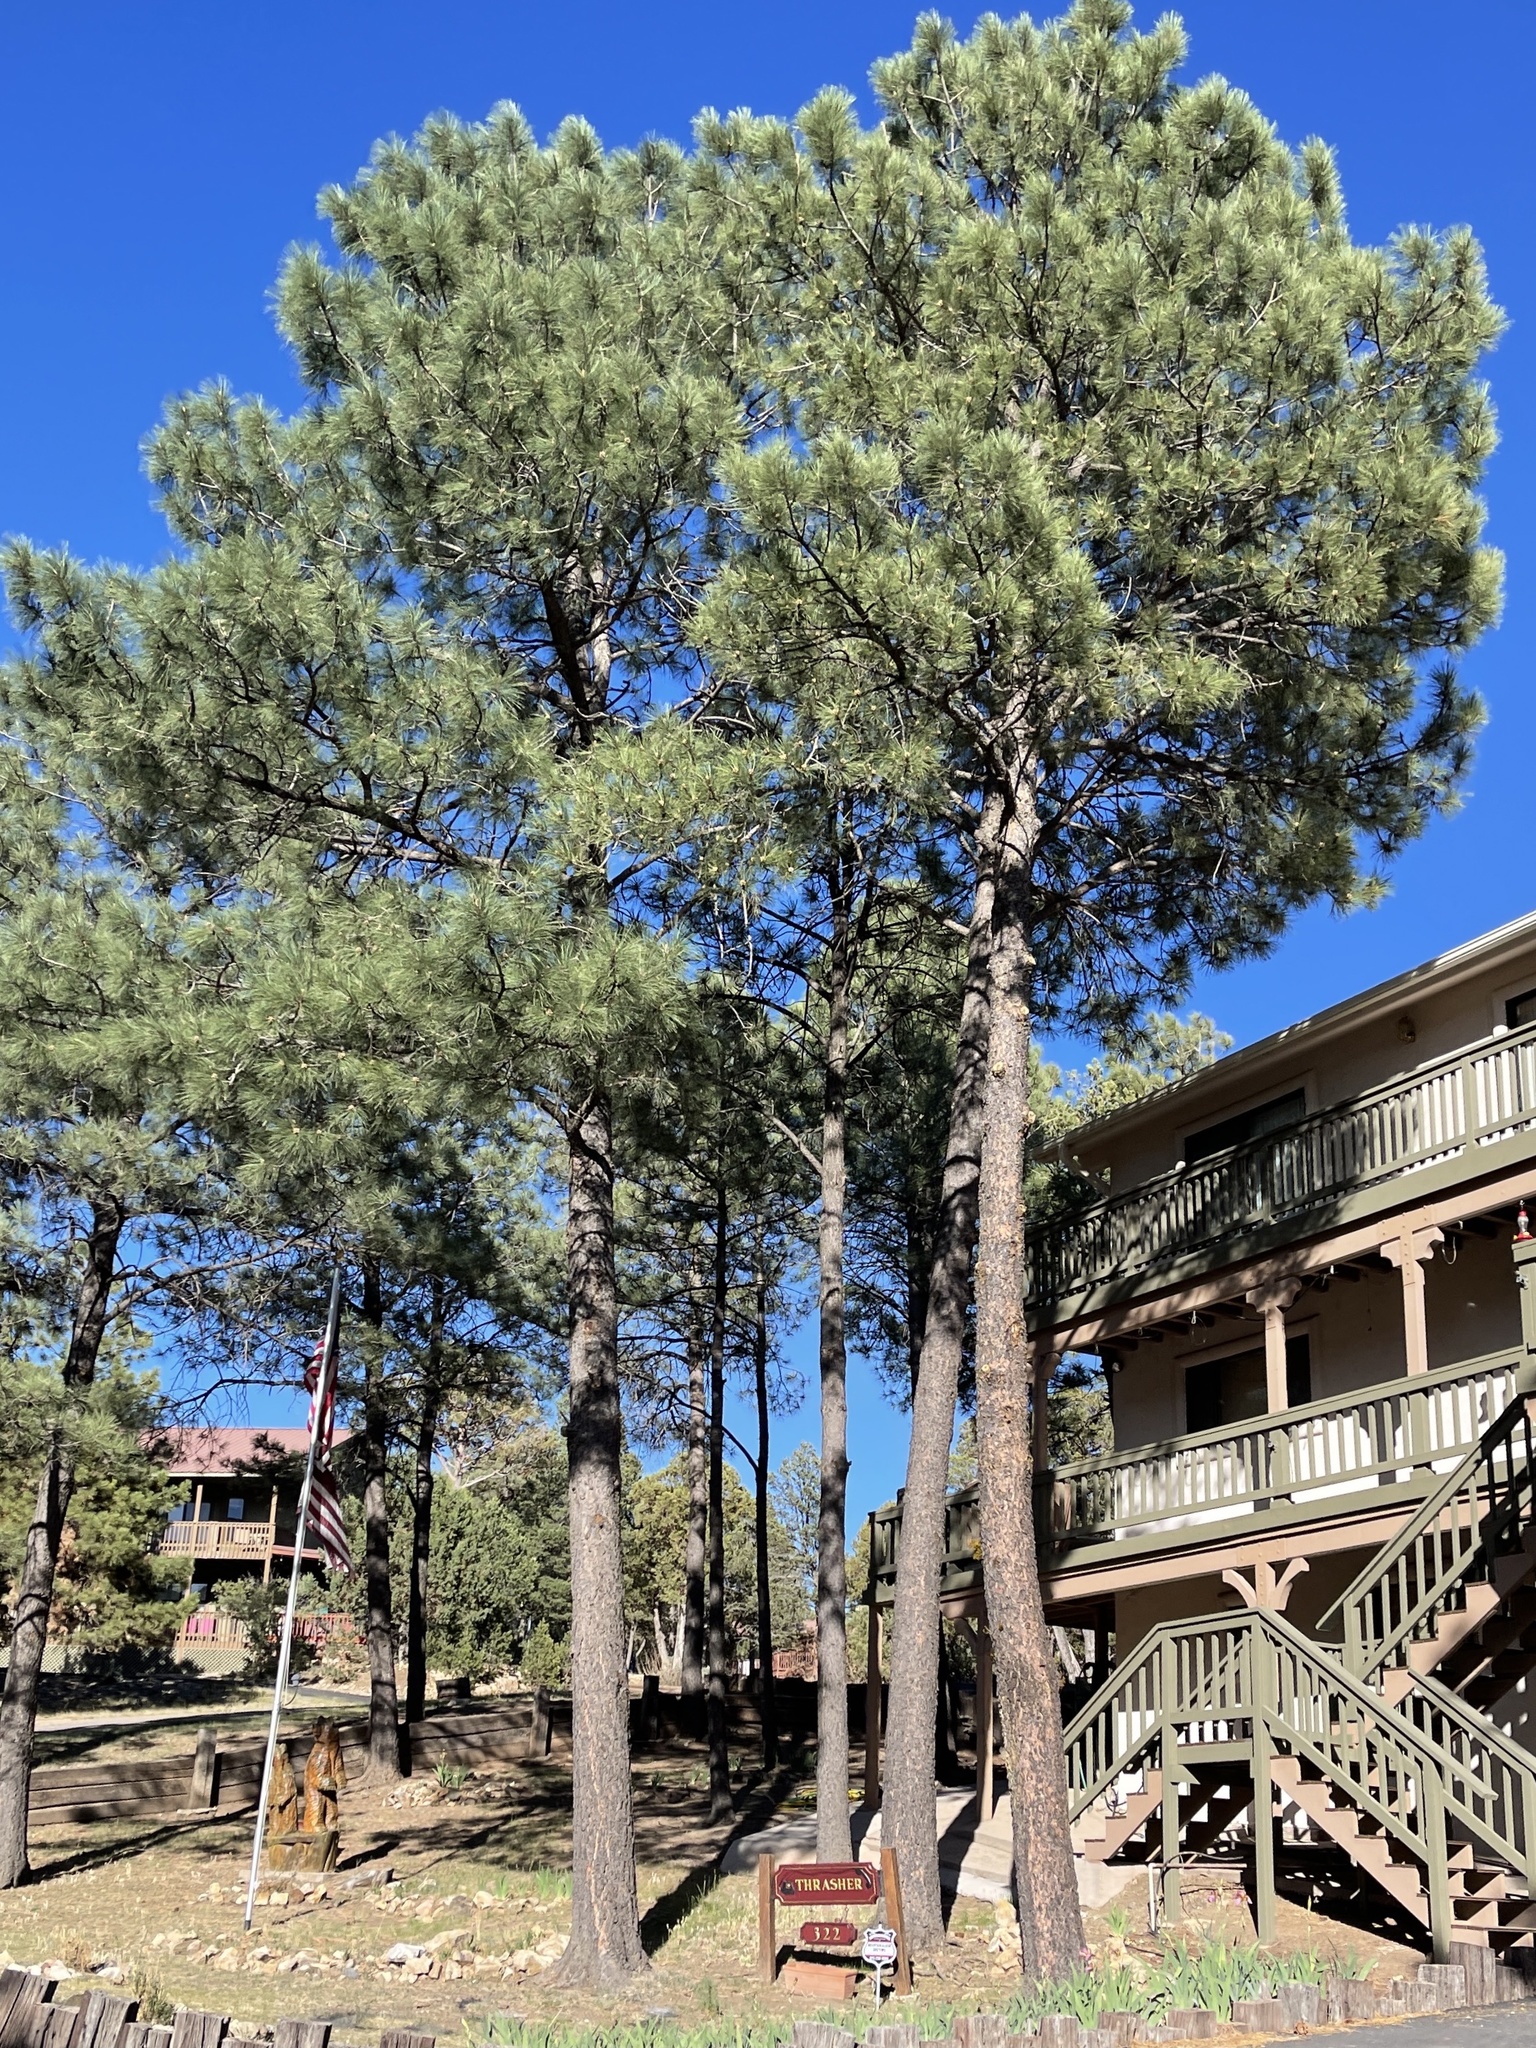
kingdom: Plantae
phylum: Tracheophyta
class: Pinopsida
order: Pinales
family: Pinaceae
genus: Pinus
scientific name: Pinus ponderosa
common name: Western yellow-pine
